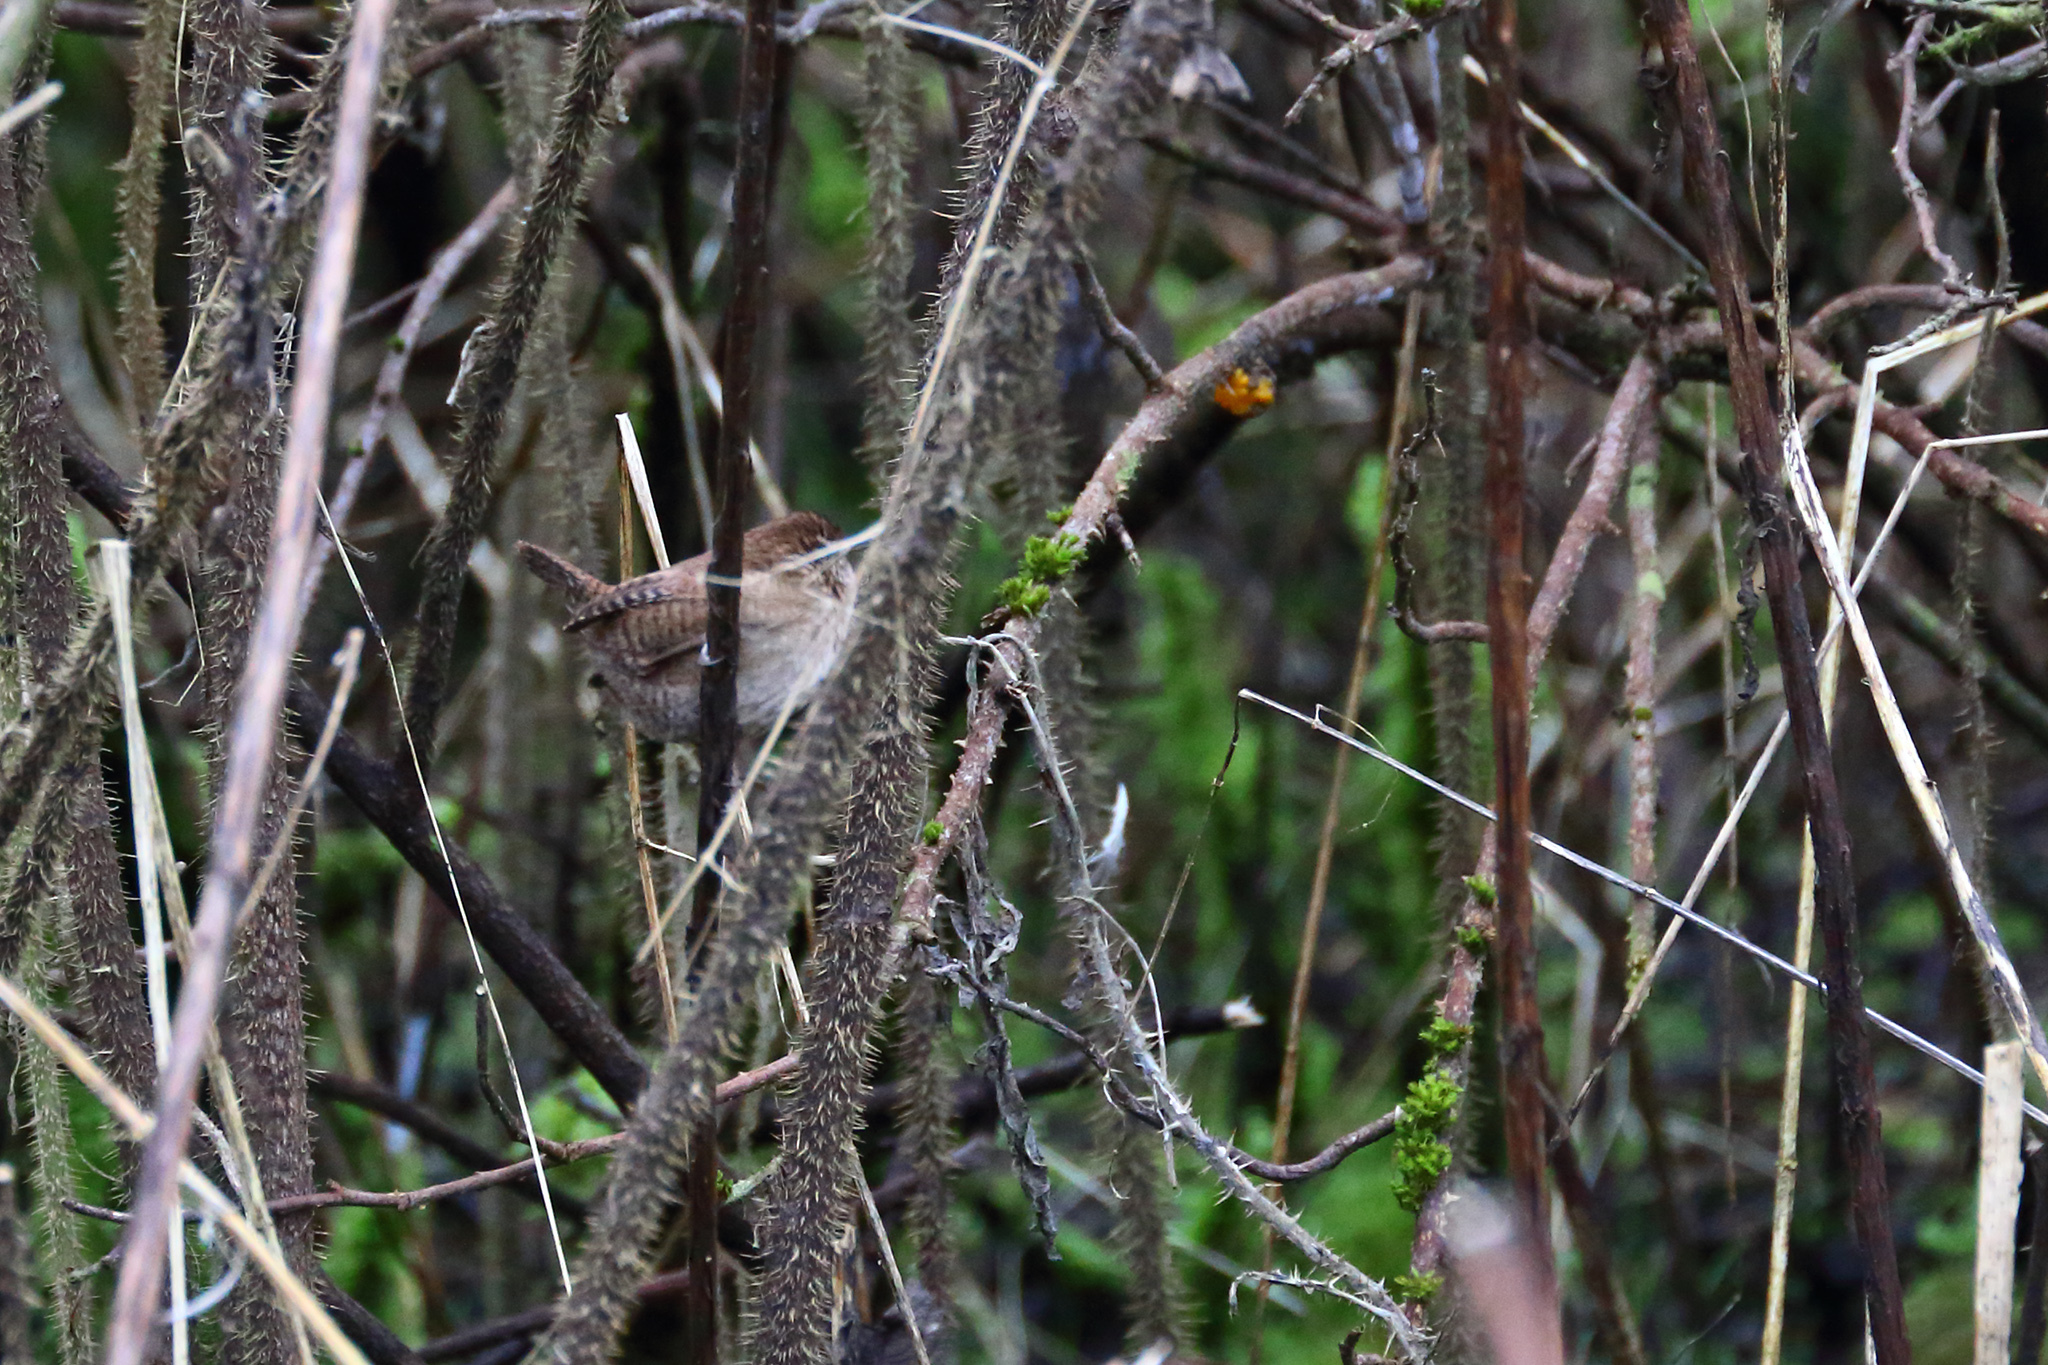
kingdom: Animalia
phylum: Chordata
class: Aves
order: Passeriformes
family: Troglodytidae
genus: Troglodytes
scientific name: Troglodytes troglodytes
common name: Eurasian wren
